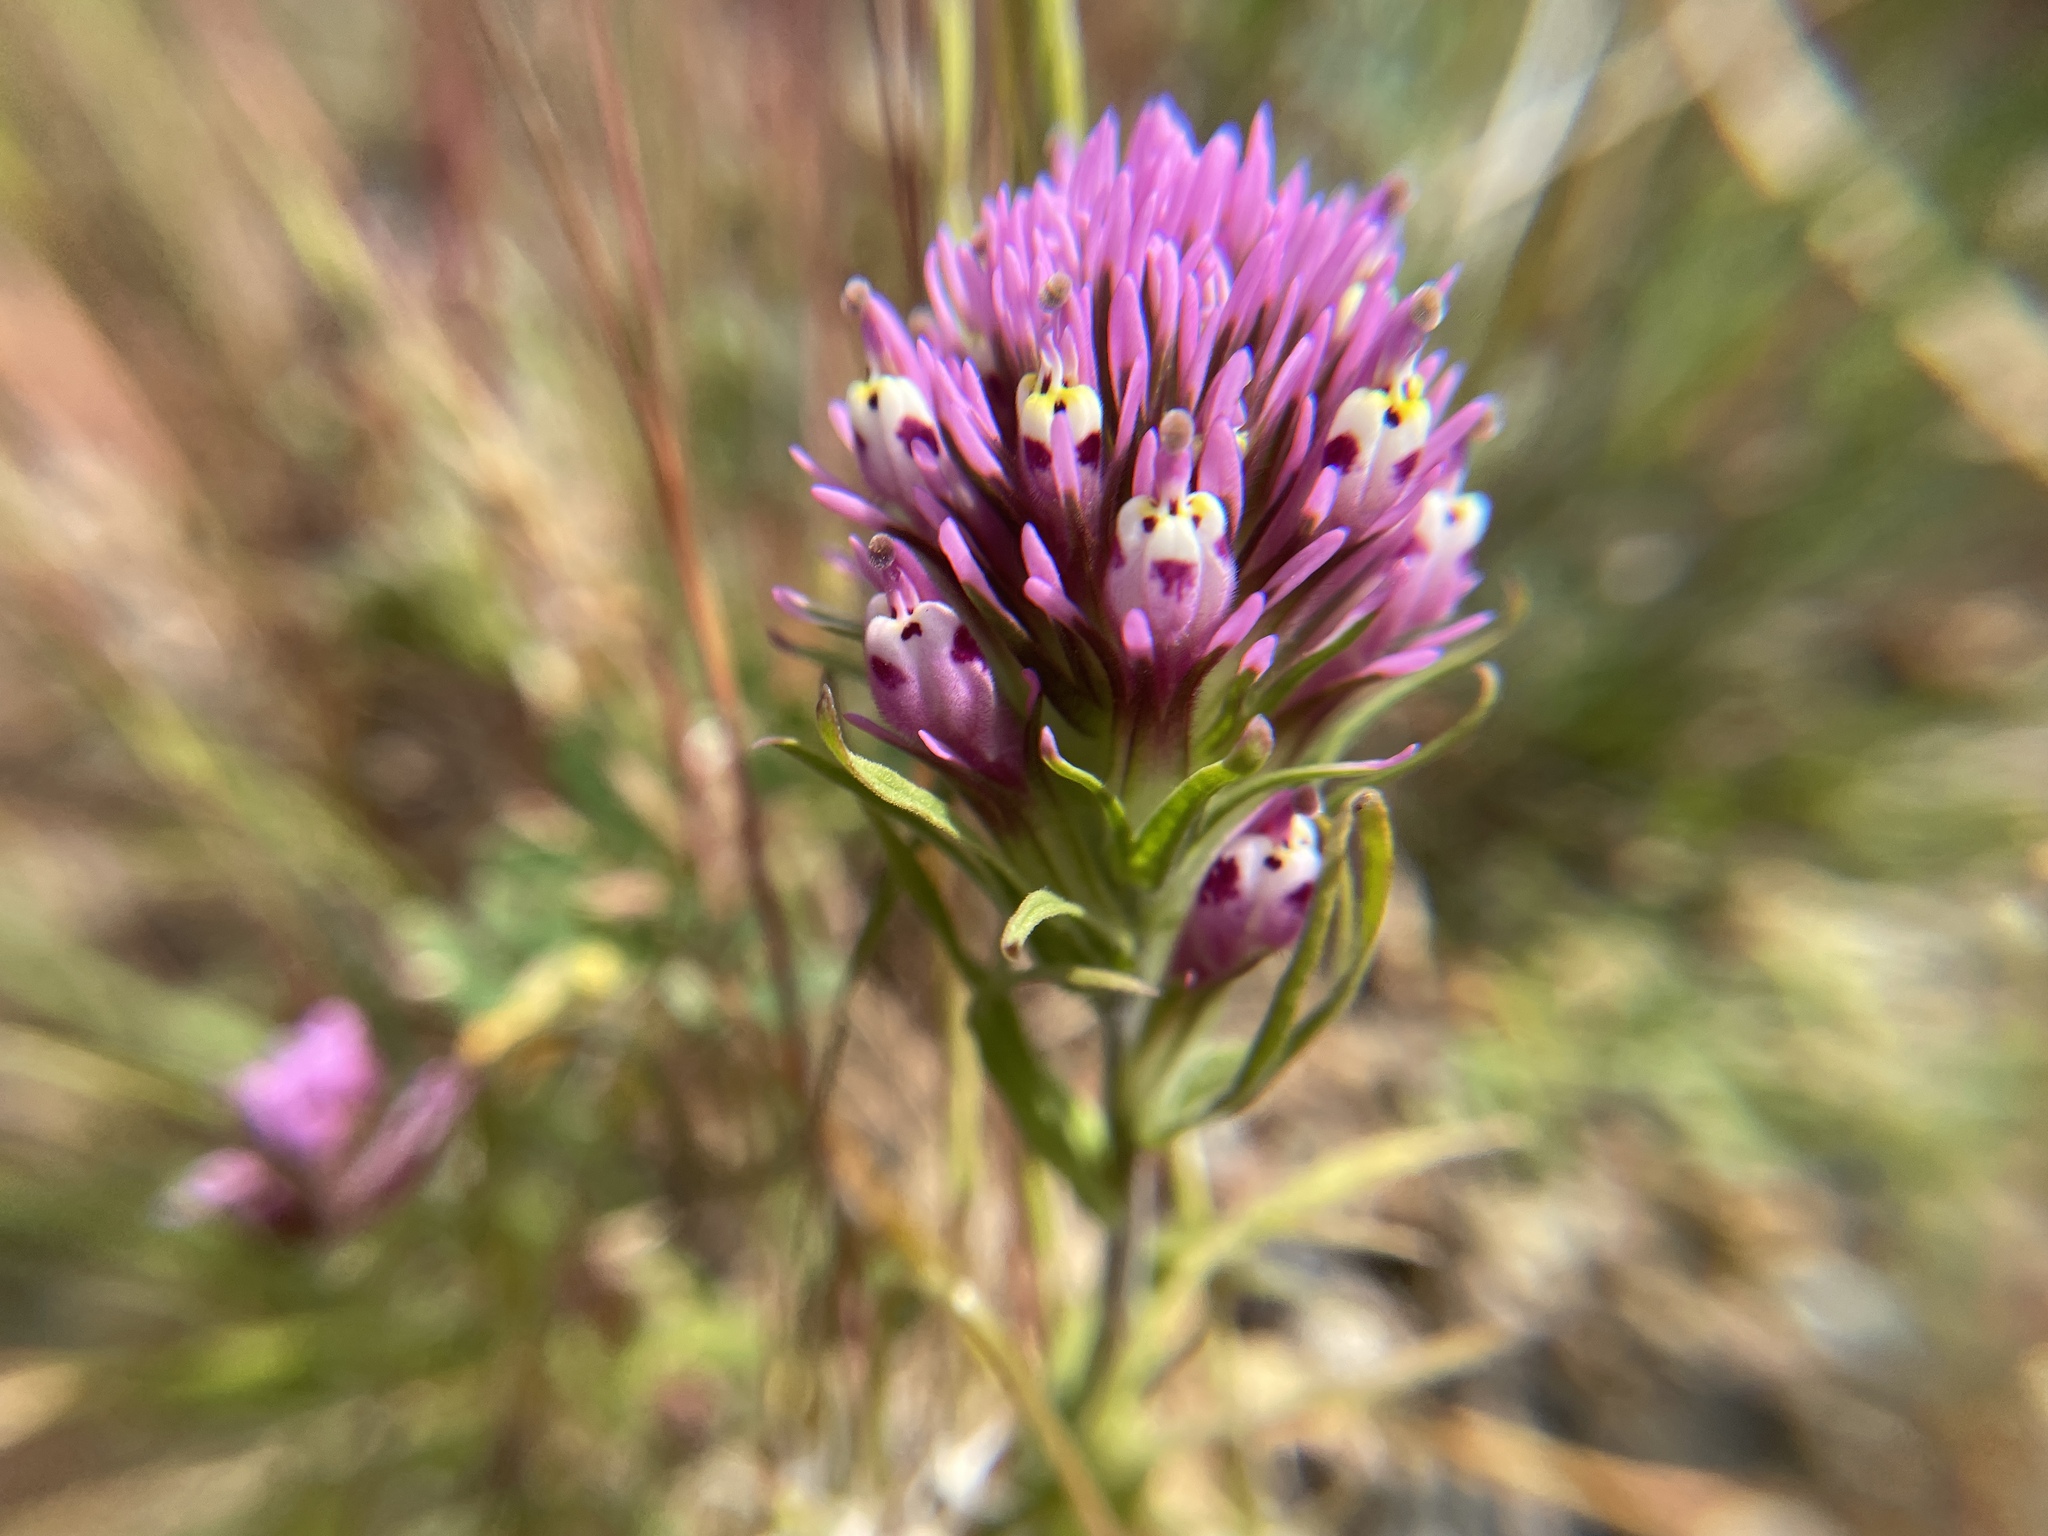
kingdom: Plantae
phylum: Tracheophyta
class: Magnoliopsida
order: Lamiales
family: Orobanchaceae
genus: Castilleja
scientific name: Castilleja densiflora
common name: Dense-flower indian paintbrush
